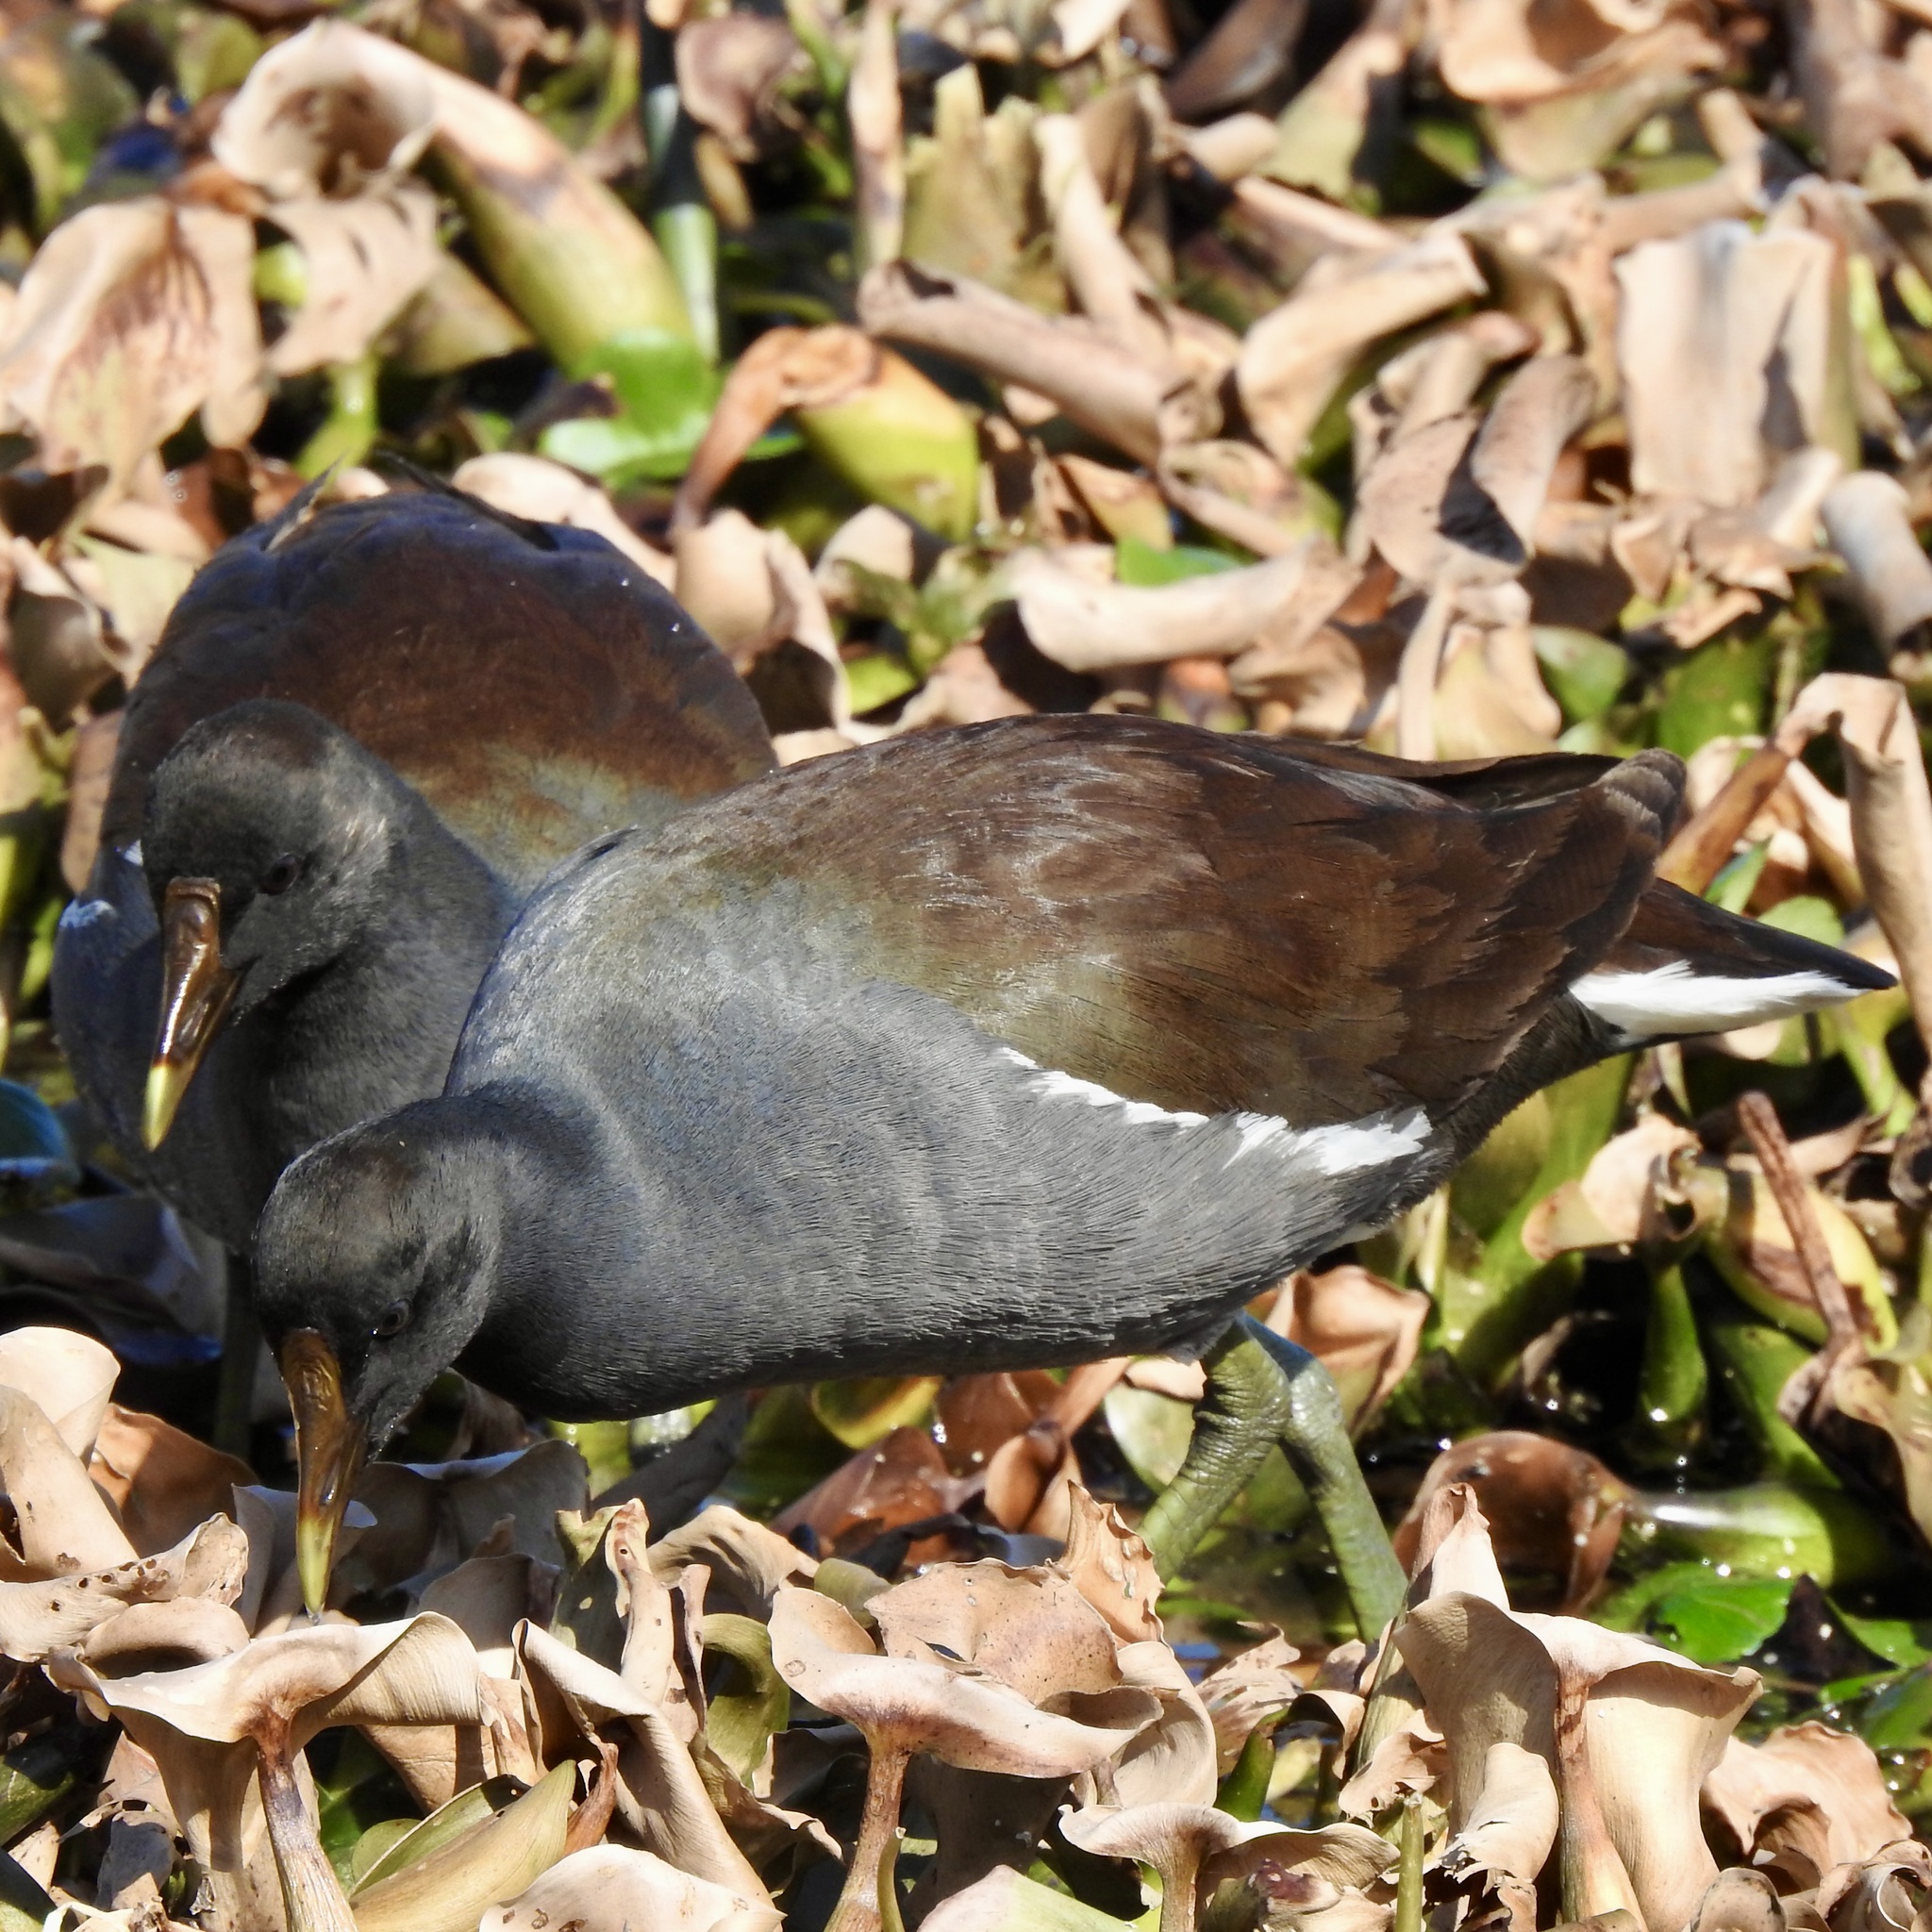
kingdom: Animalia
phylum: Chordata
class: Aves
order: Gruiformes
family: Rallidae
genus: Gallinula
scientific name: Gallinula chloropus
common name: Common moorhen
